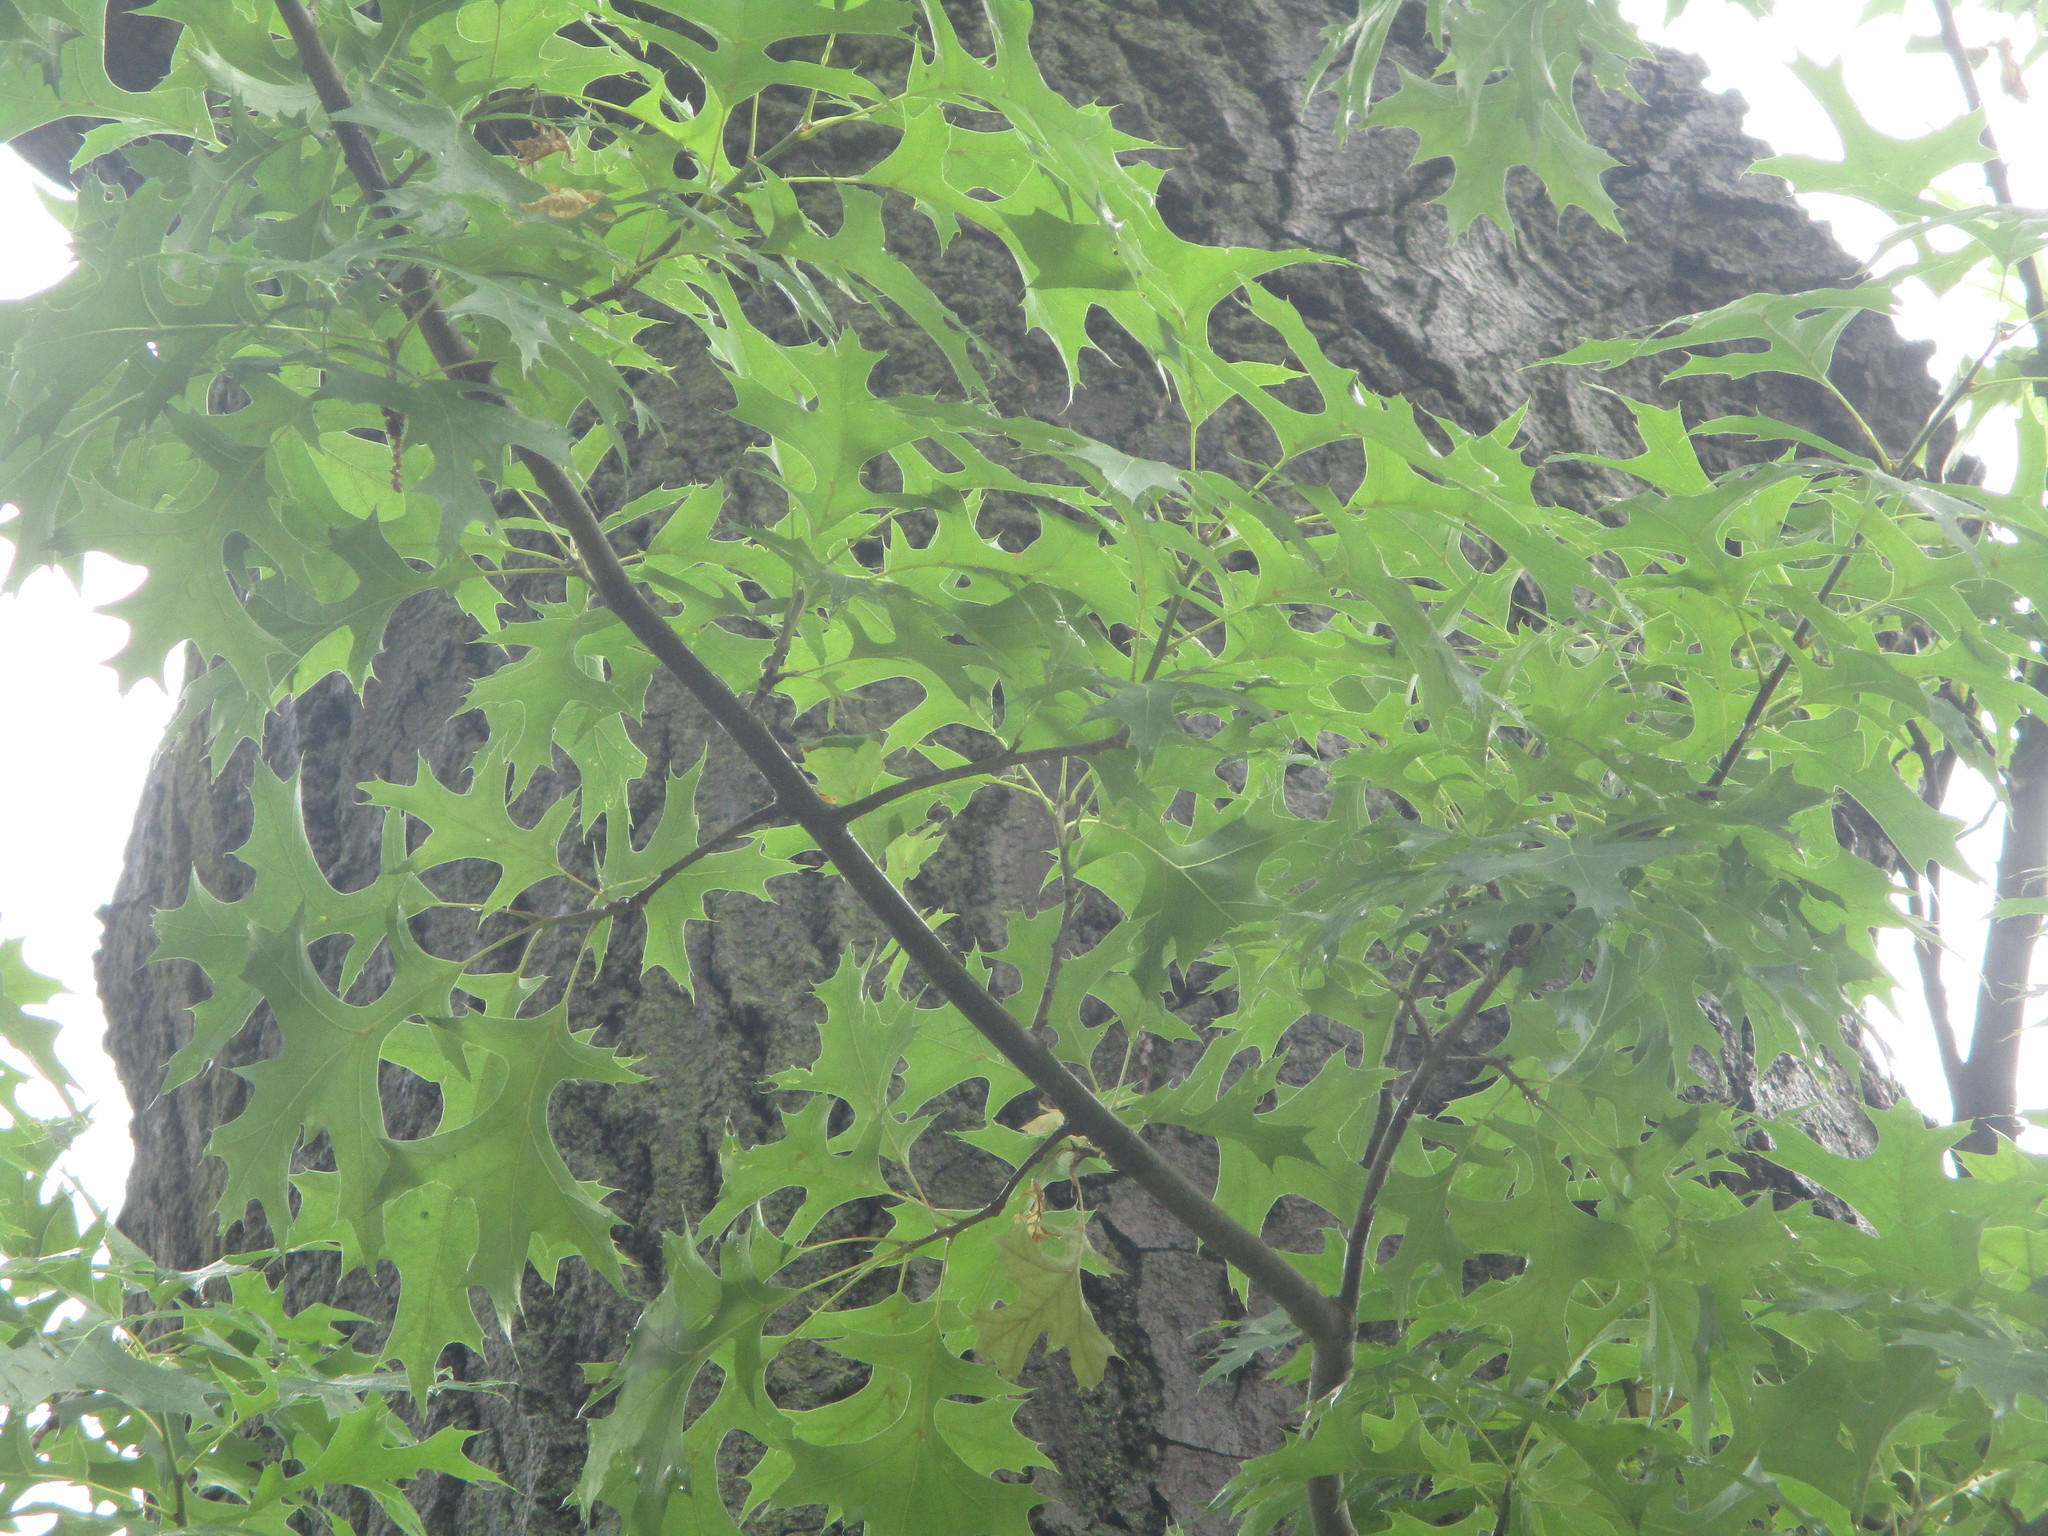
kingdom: Plantae
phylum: Tracheophyta
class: Magnoliopsida
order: Fagales
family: Fagaceae
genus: Quercus
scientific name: Quercus palustris
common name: Pin oak
